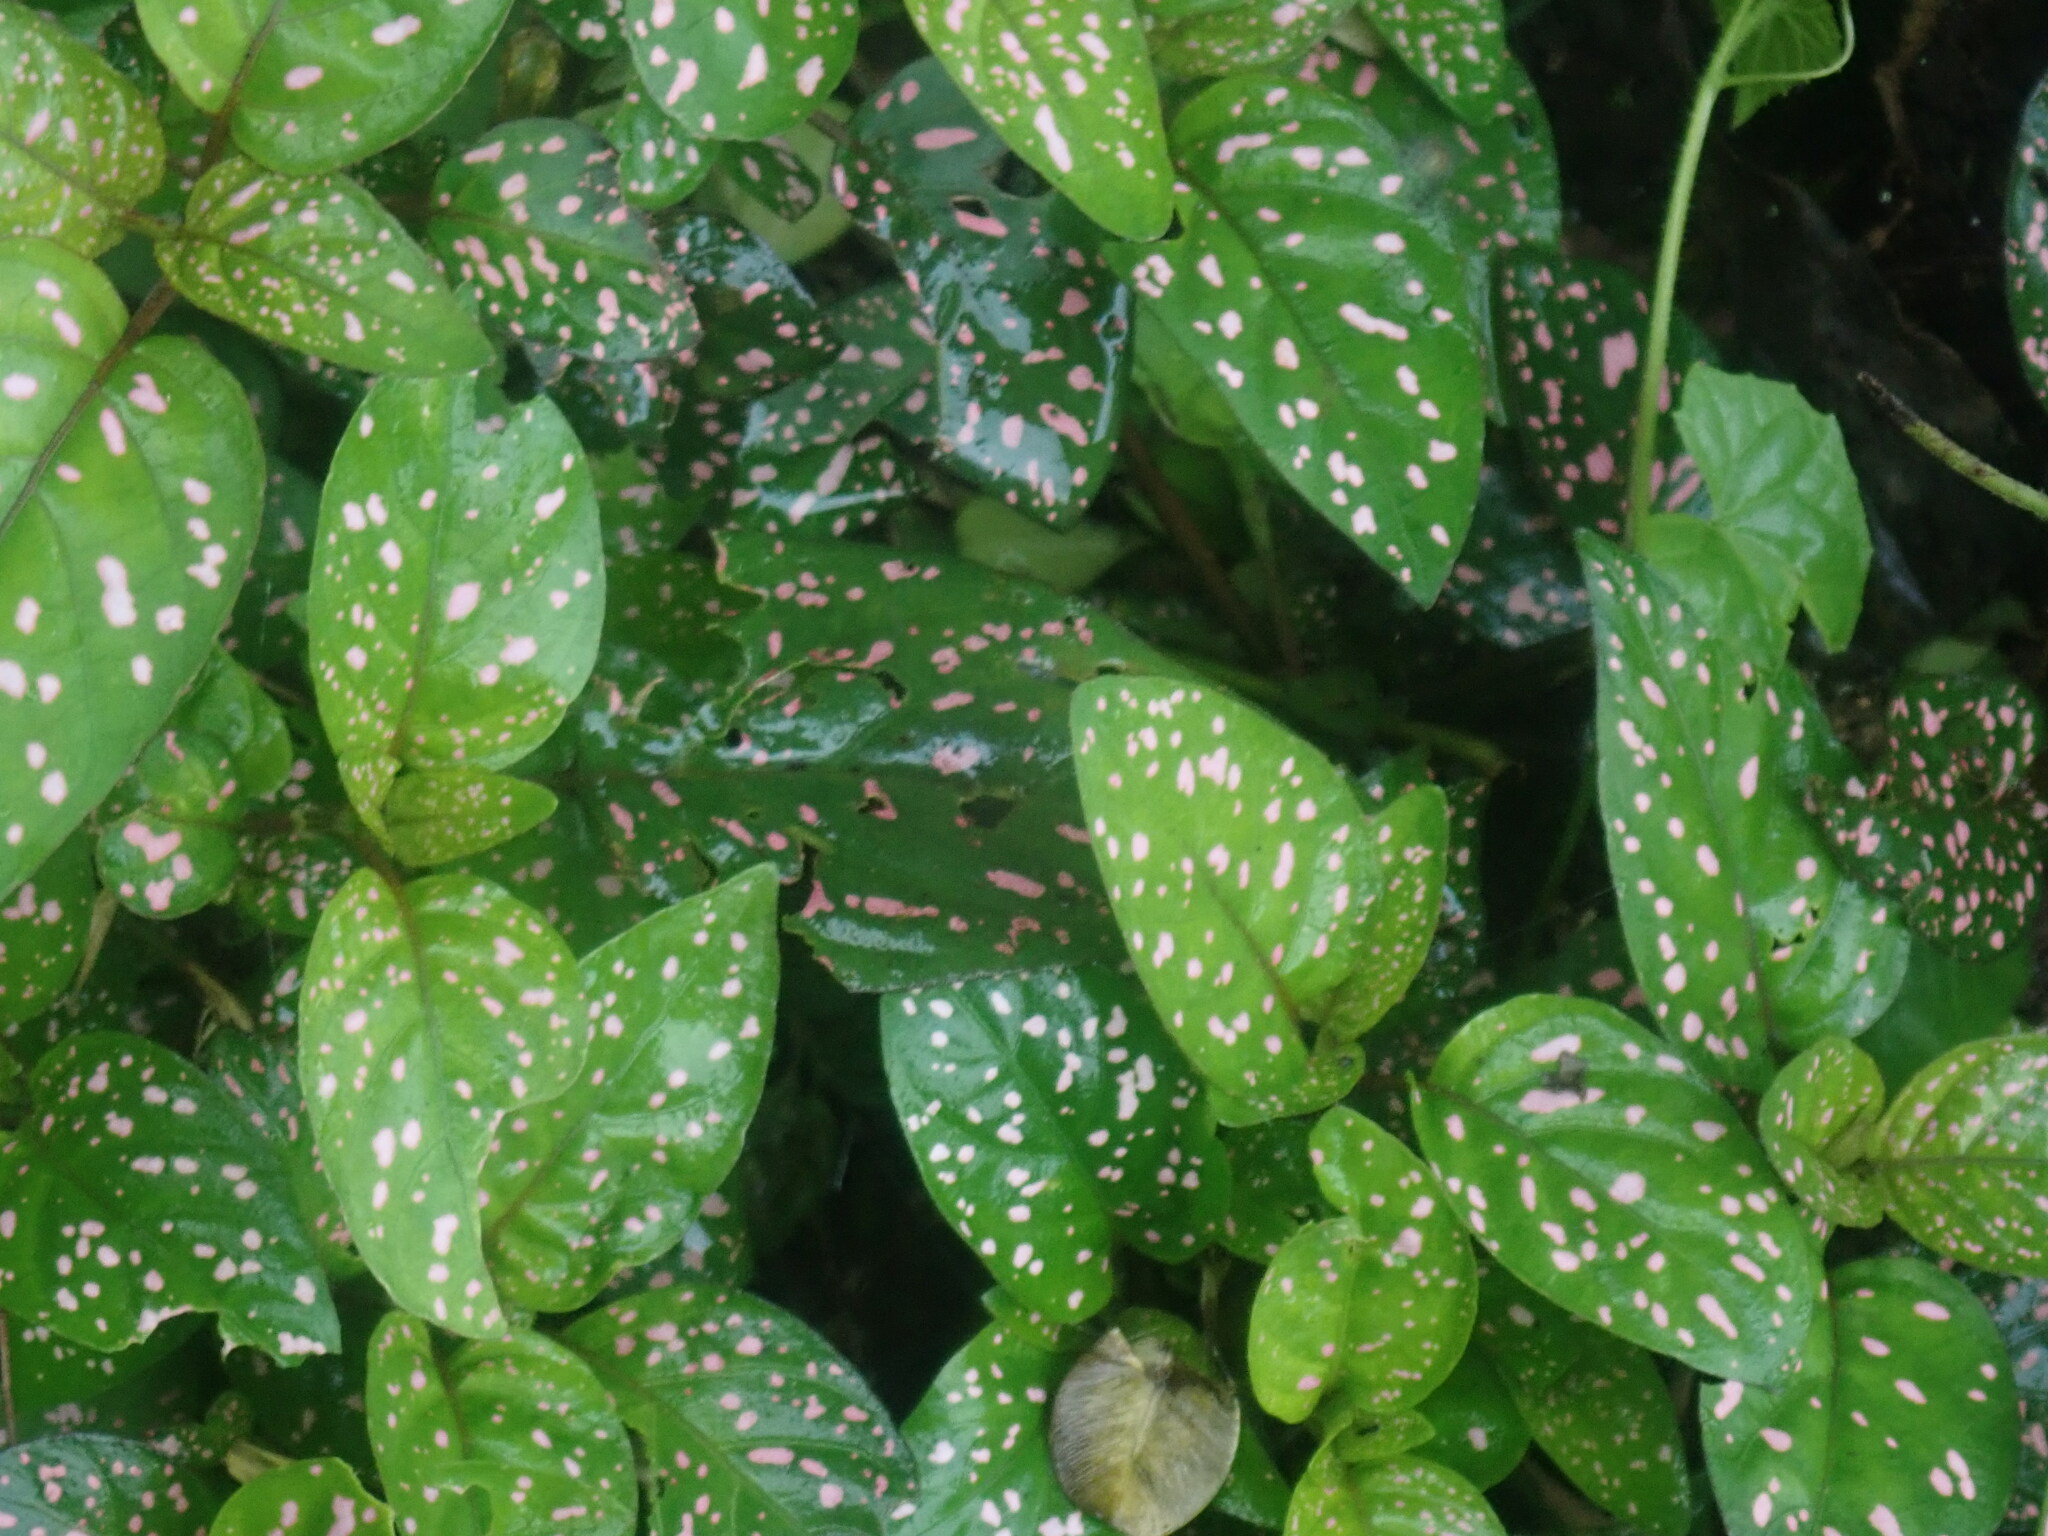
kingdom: Plantae
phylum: Tracheophyta
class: Magnoliopsida
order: Lamiales
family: Acanthaceae
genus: Hypoestes
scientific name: Hypoestes phyllostachya
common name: Polkadot-plant
